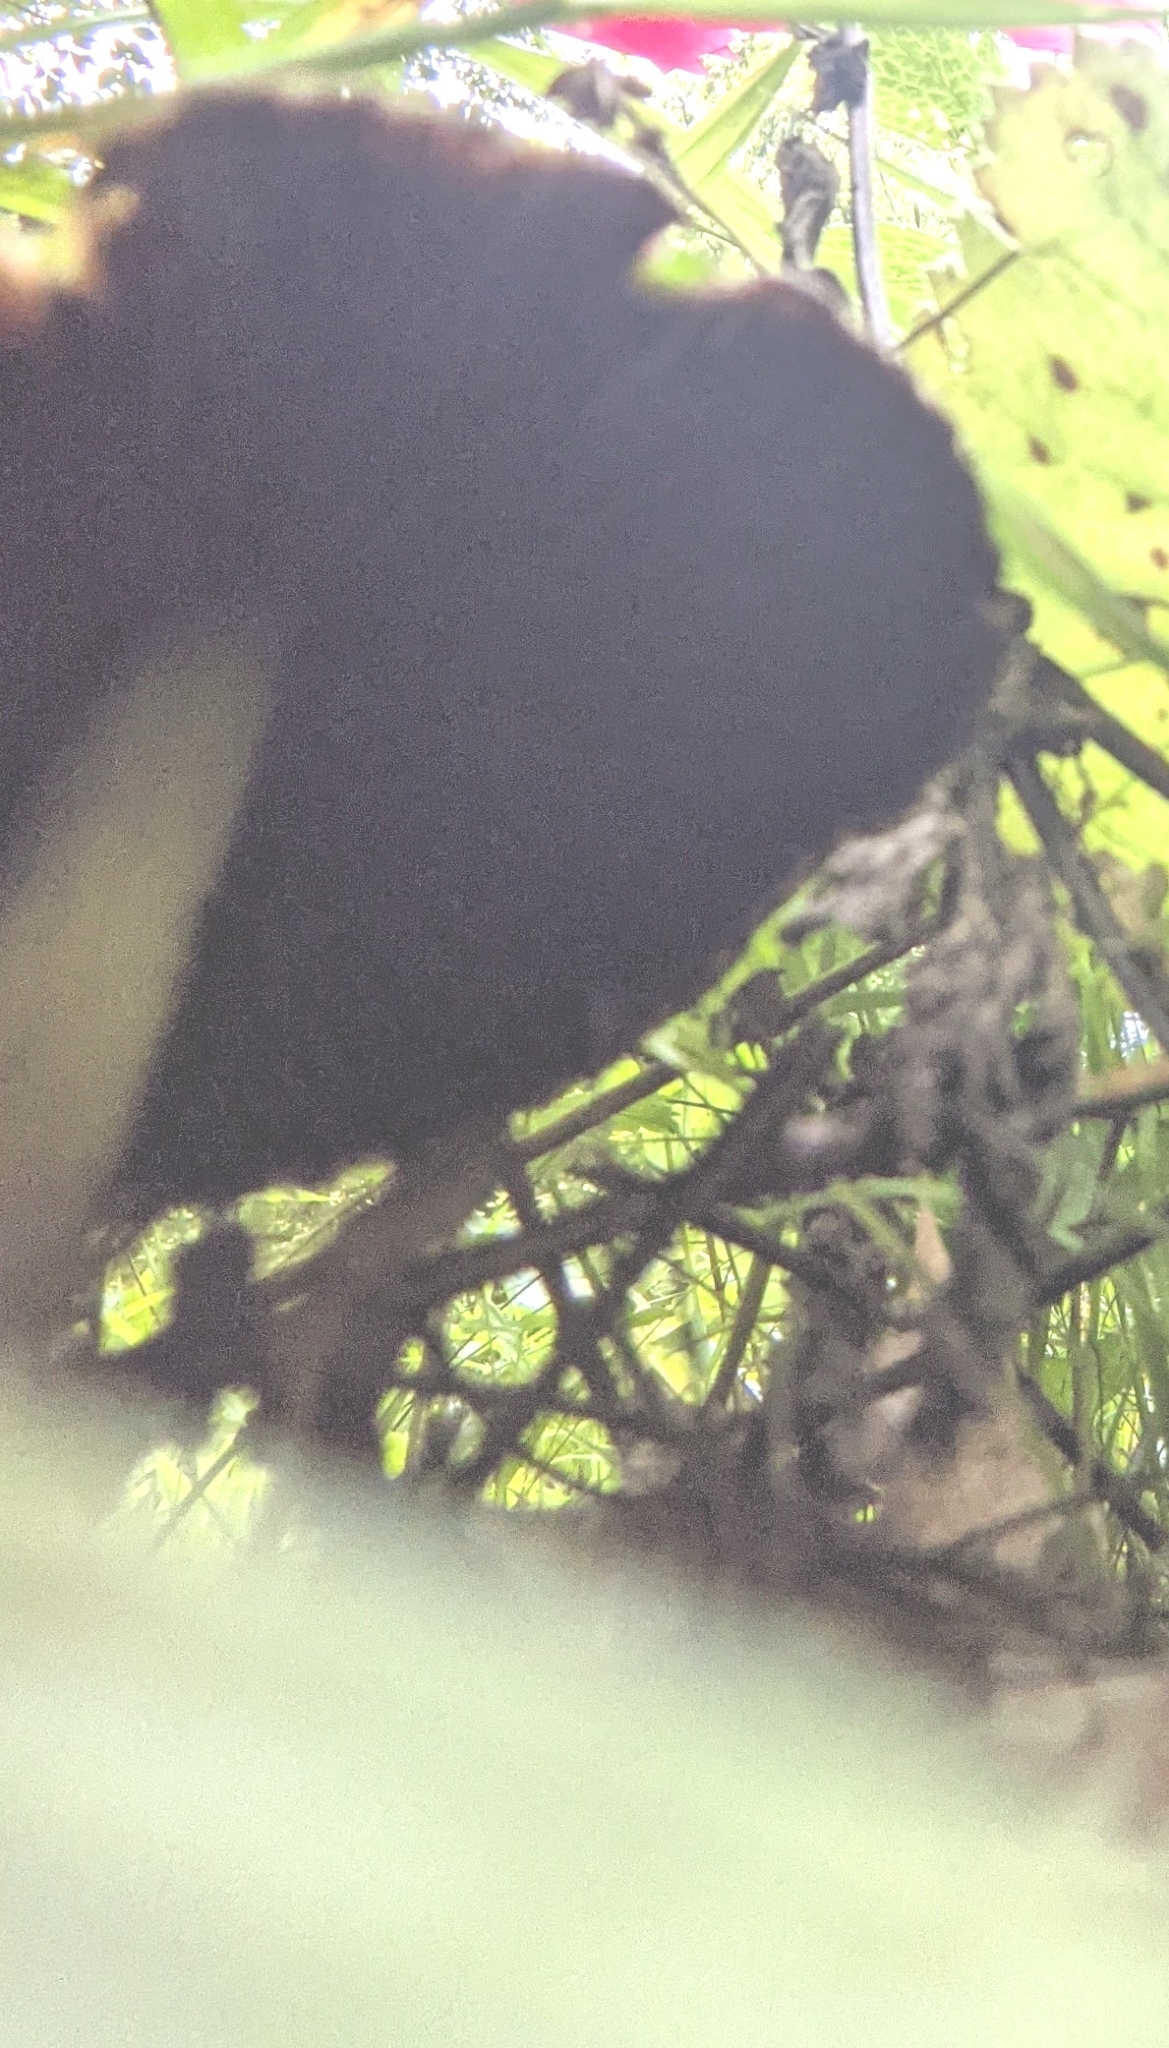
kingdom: Fungi
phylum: Basidiomycota
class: Agaricomycetes
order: Agaricales
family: Psathyrellaceae
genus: Lacrymaria
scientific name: Lacrymaria lacrymabunda
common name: Weeping widow
